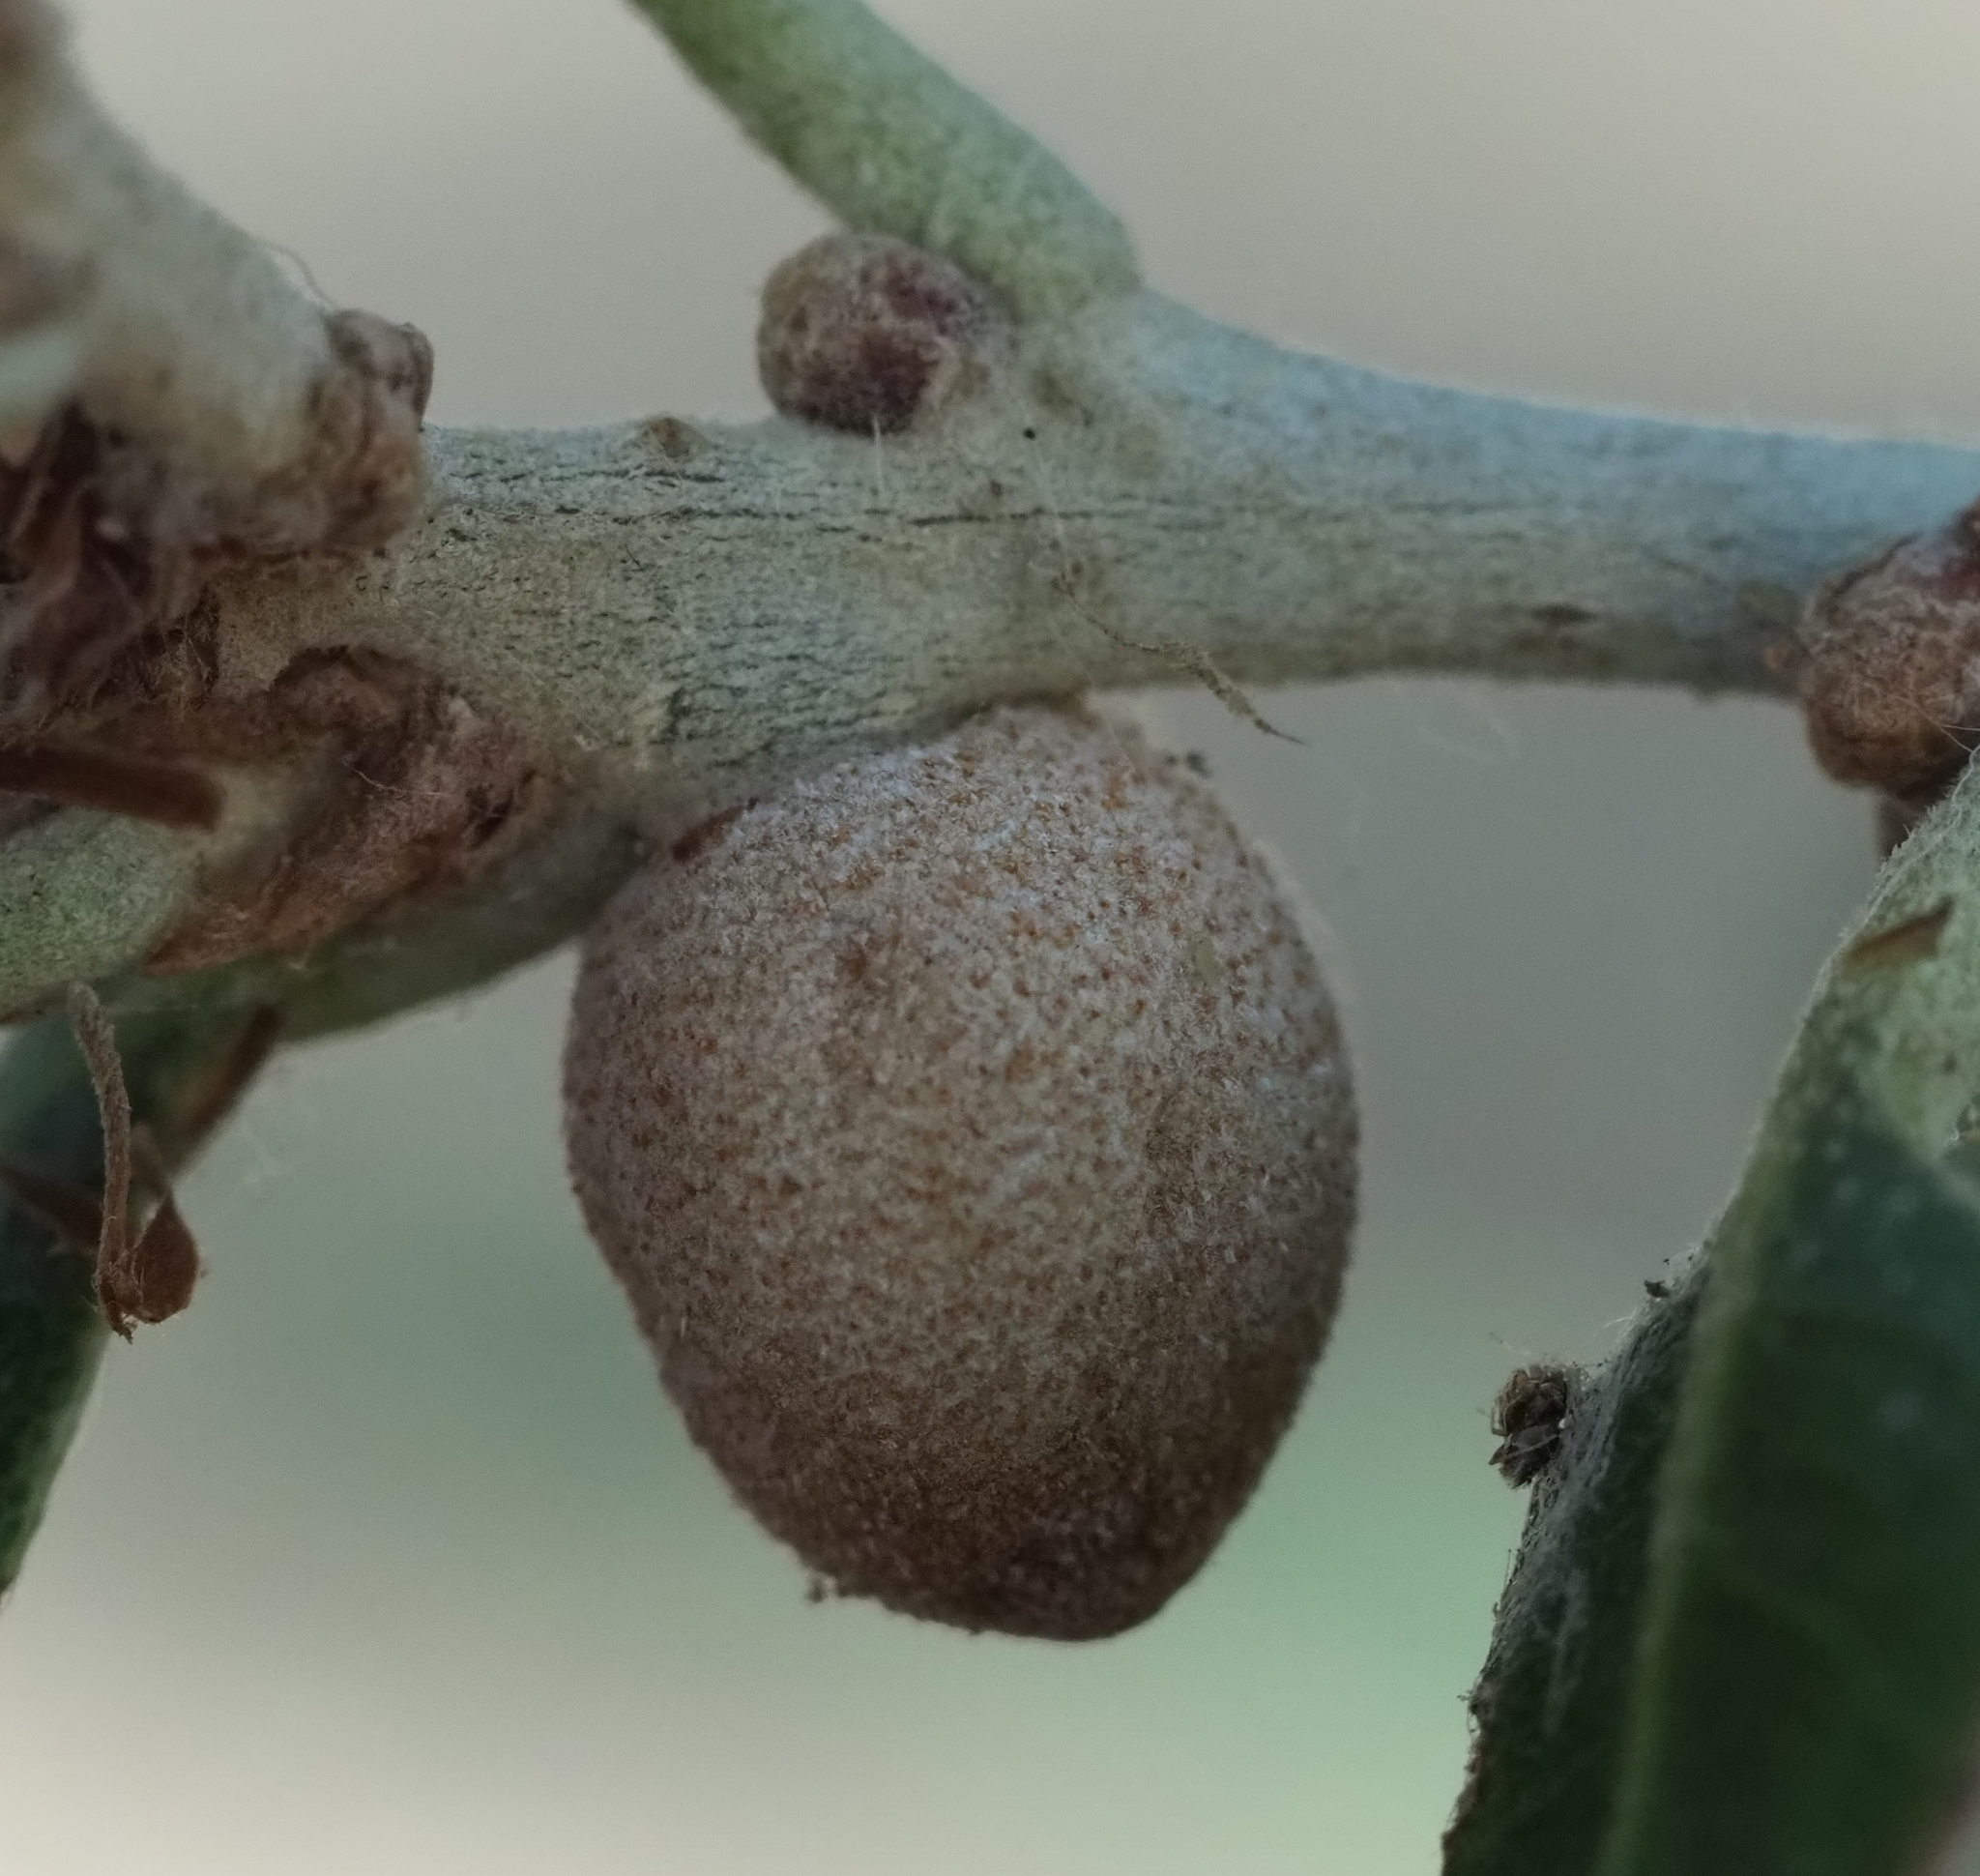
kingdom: Animalia
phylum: Arthropoda
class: Insecta
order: Hymenoptera
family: Cynipidae
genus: Disholcaspis
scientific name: Disholcaspis
